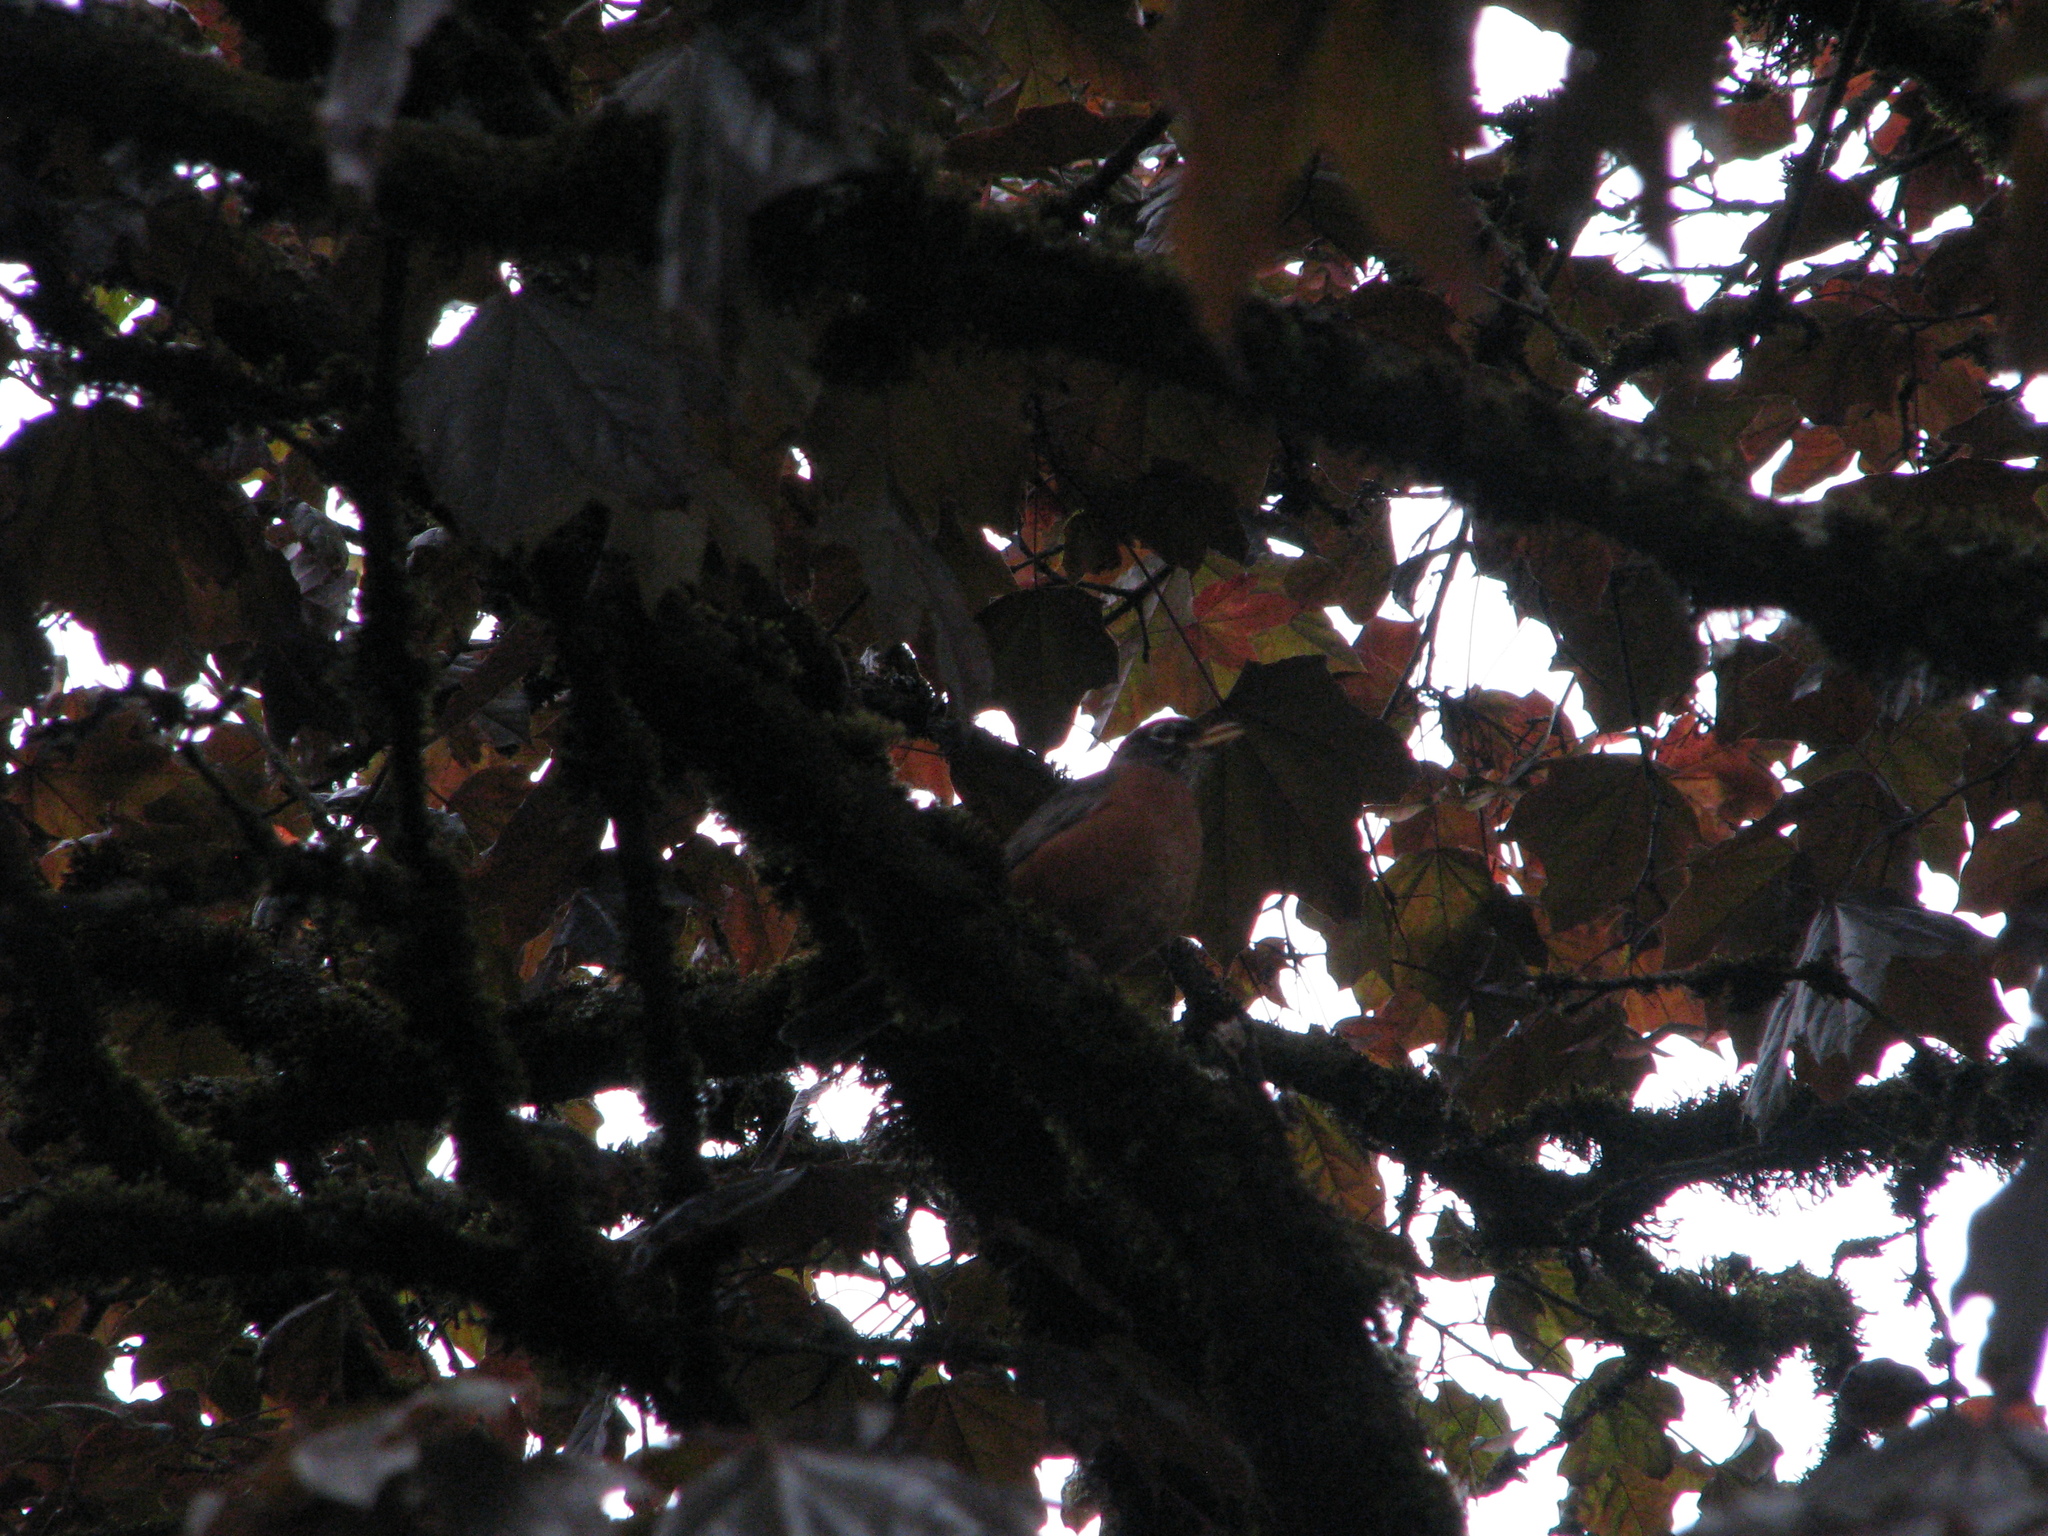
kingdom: Animalia
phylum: Chordata
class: Aves
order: Passeriformes
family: Turdidae
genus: Turdus
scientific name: Turdus migratorius
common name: American robin
